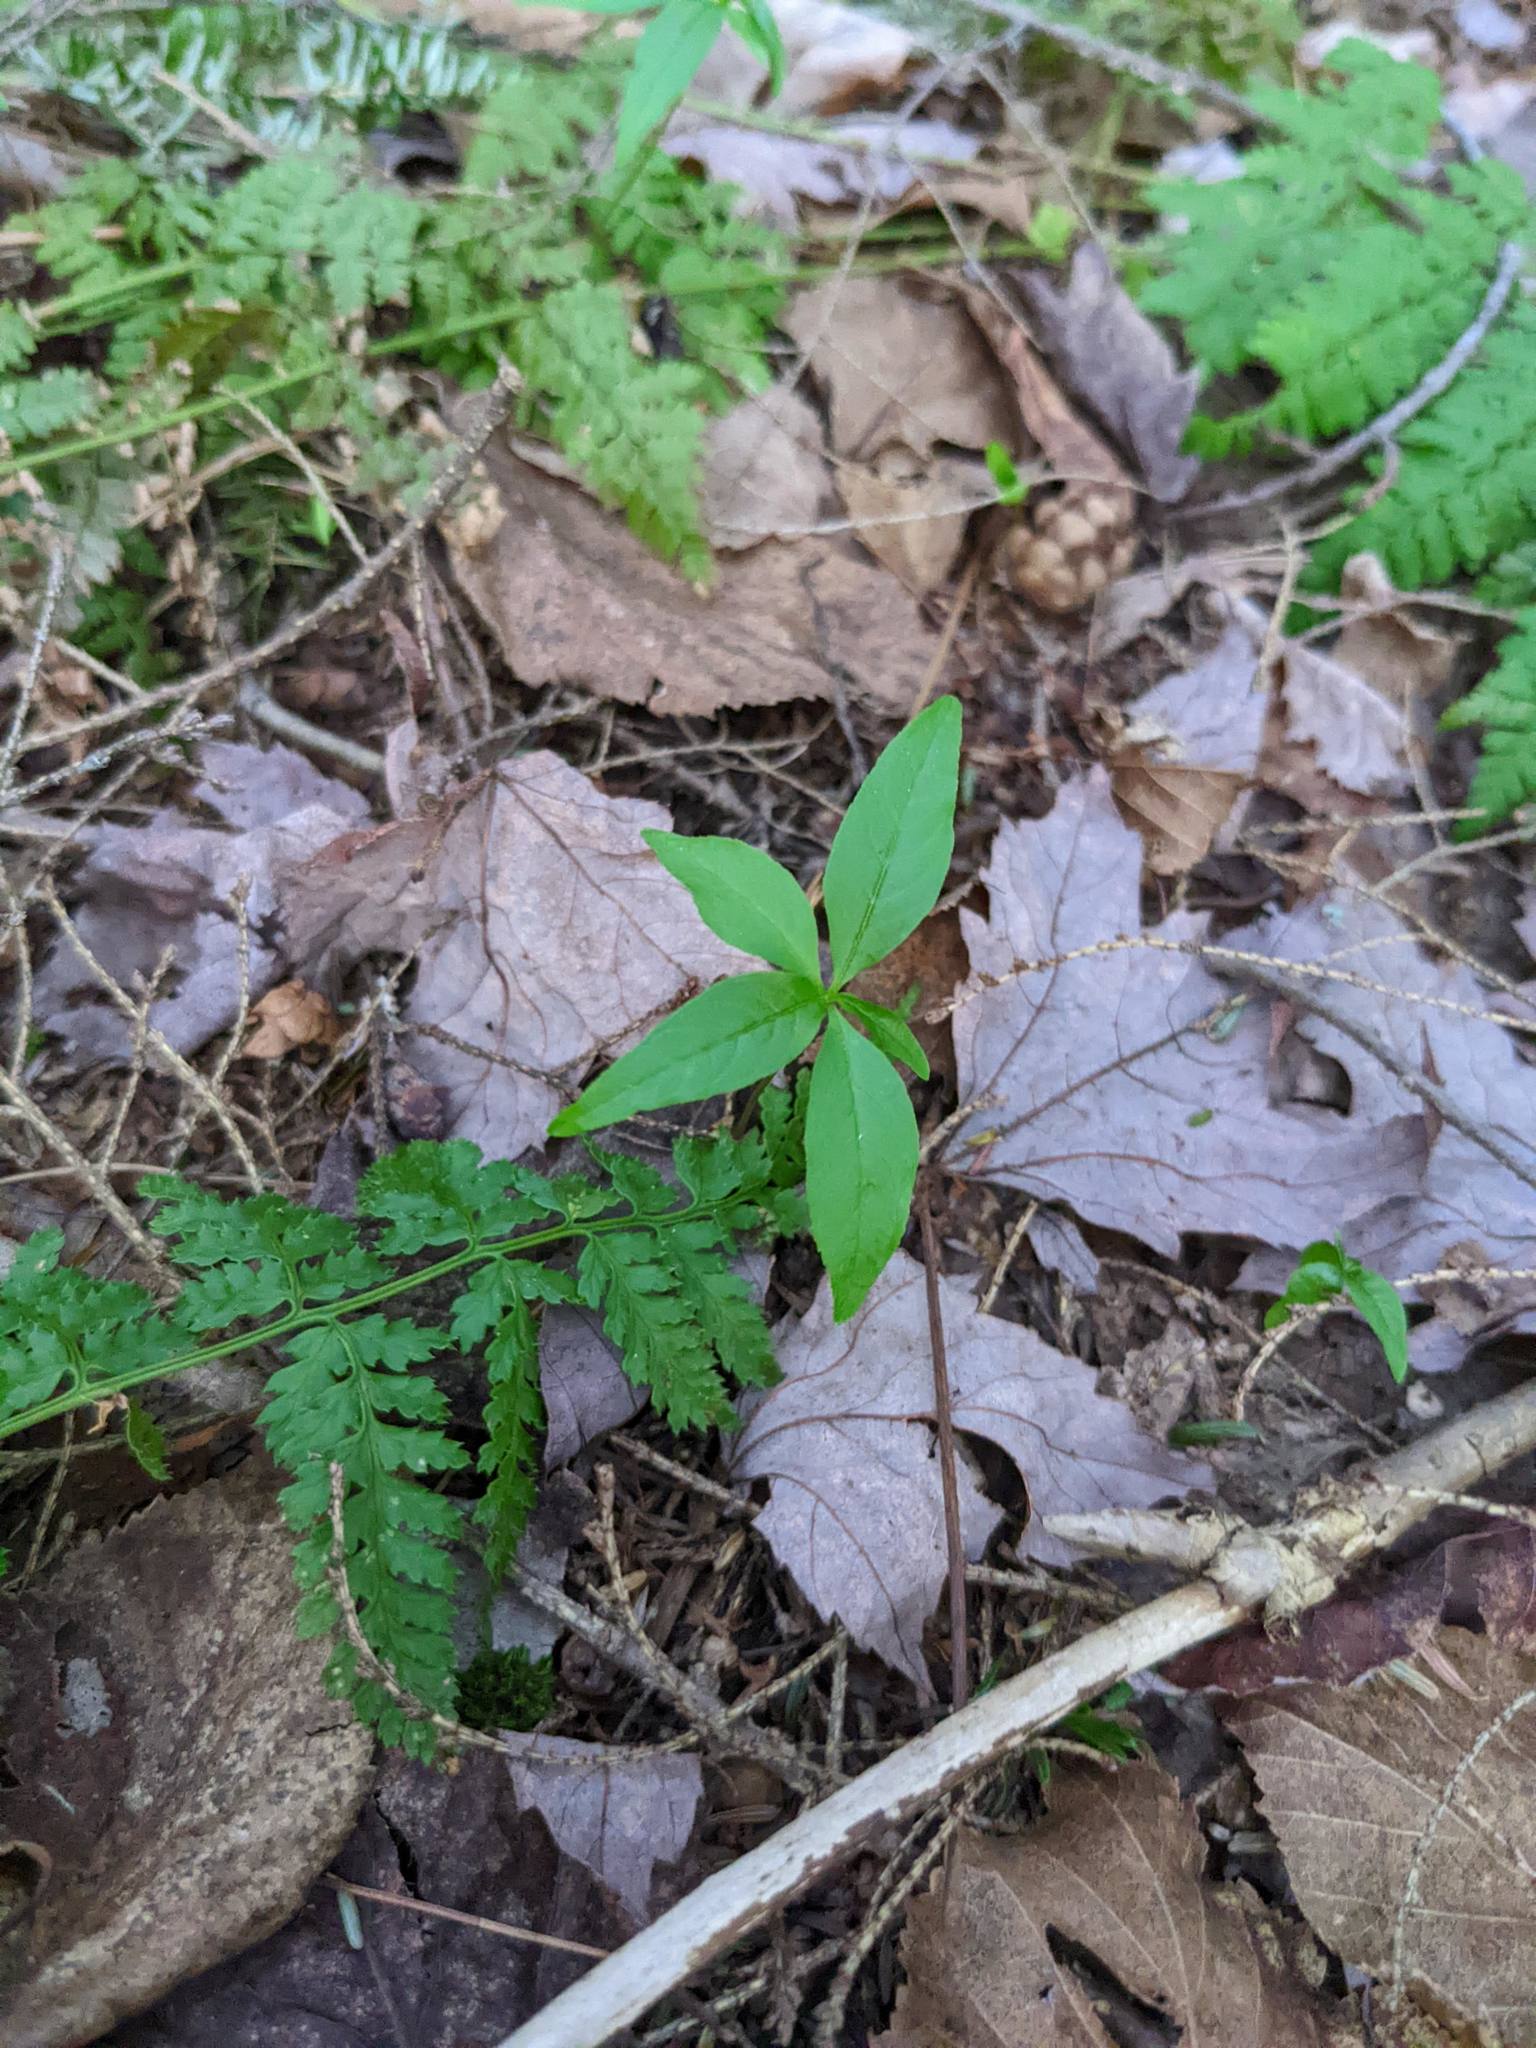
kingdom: Plantae
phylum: Tracheophyta
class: Magnoliopsida
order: Ericales
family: Primulaceae
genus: Lysimachia
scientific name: Lysimachia borealis
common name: American starflower
